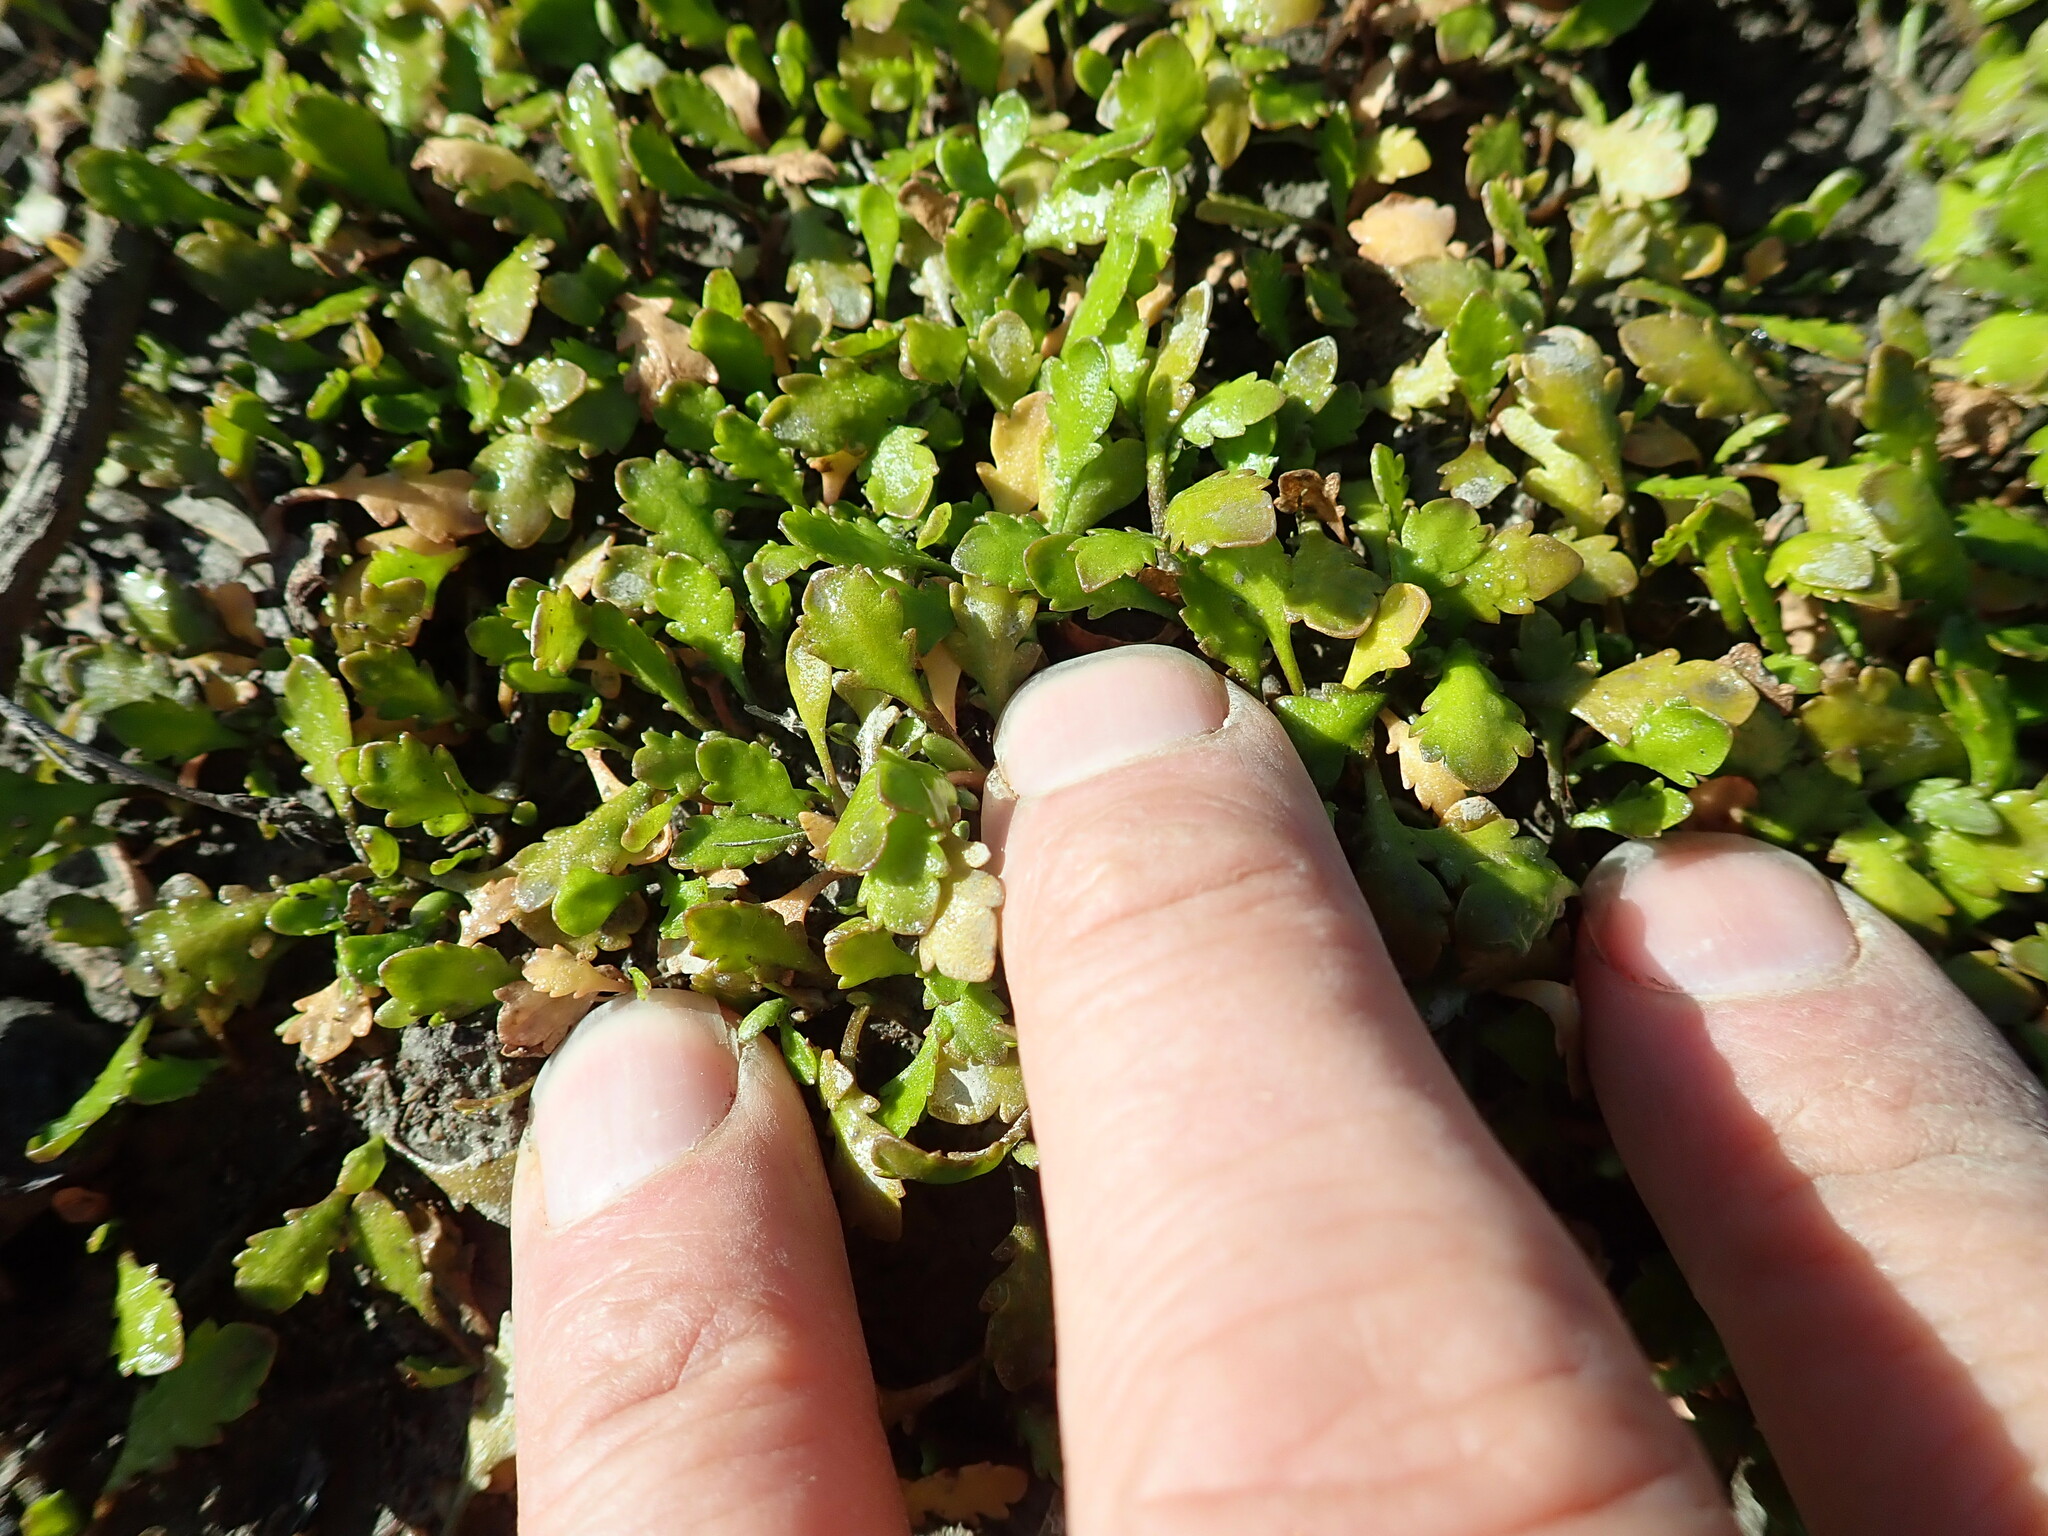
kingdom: Plantae
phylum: Tracheophyta
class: Magnoliopsida
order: Asterales
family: Asteraceae
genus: Leptinella
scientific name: Leptinella dioica
